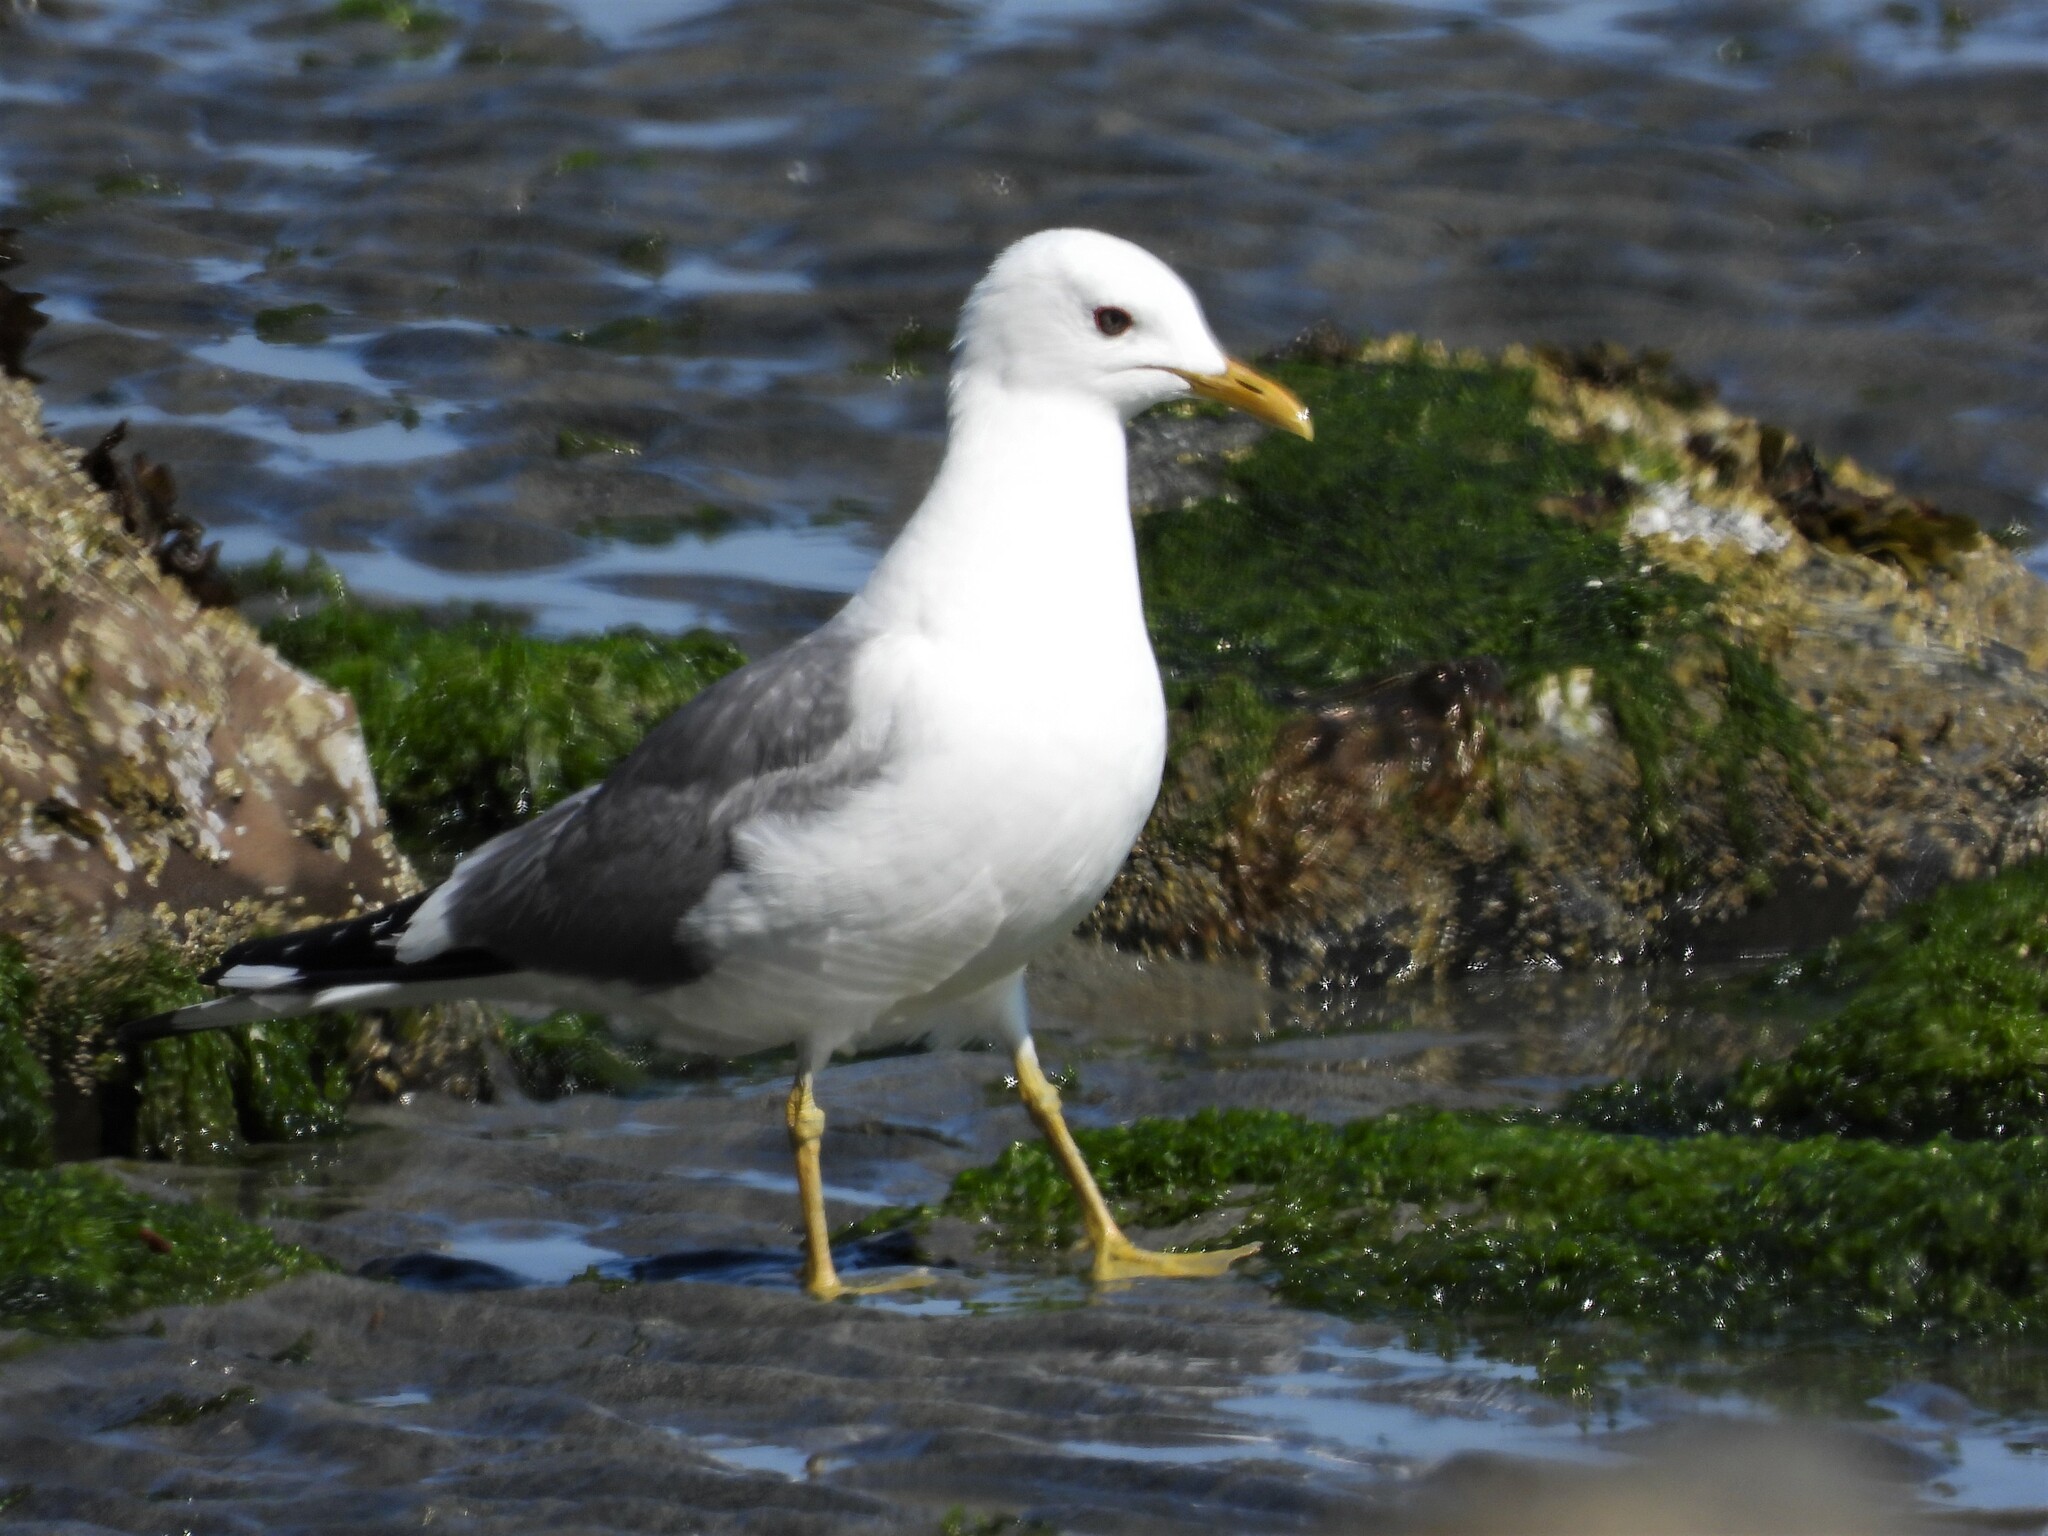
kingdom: Animalia
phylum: Chordata
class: Aves
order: Charadriiformes
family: Laridae
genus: Larus
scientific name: Larus brachyrhynchus
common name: Short-billed gull
